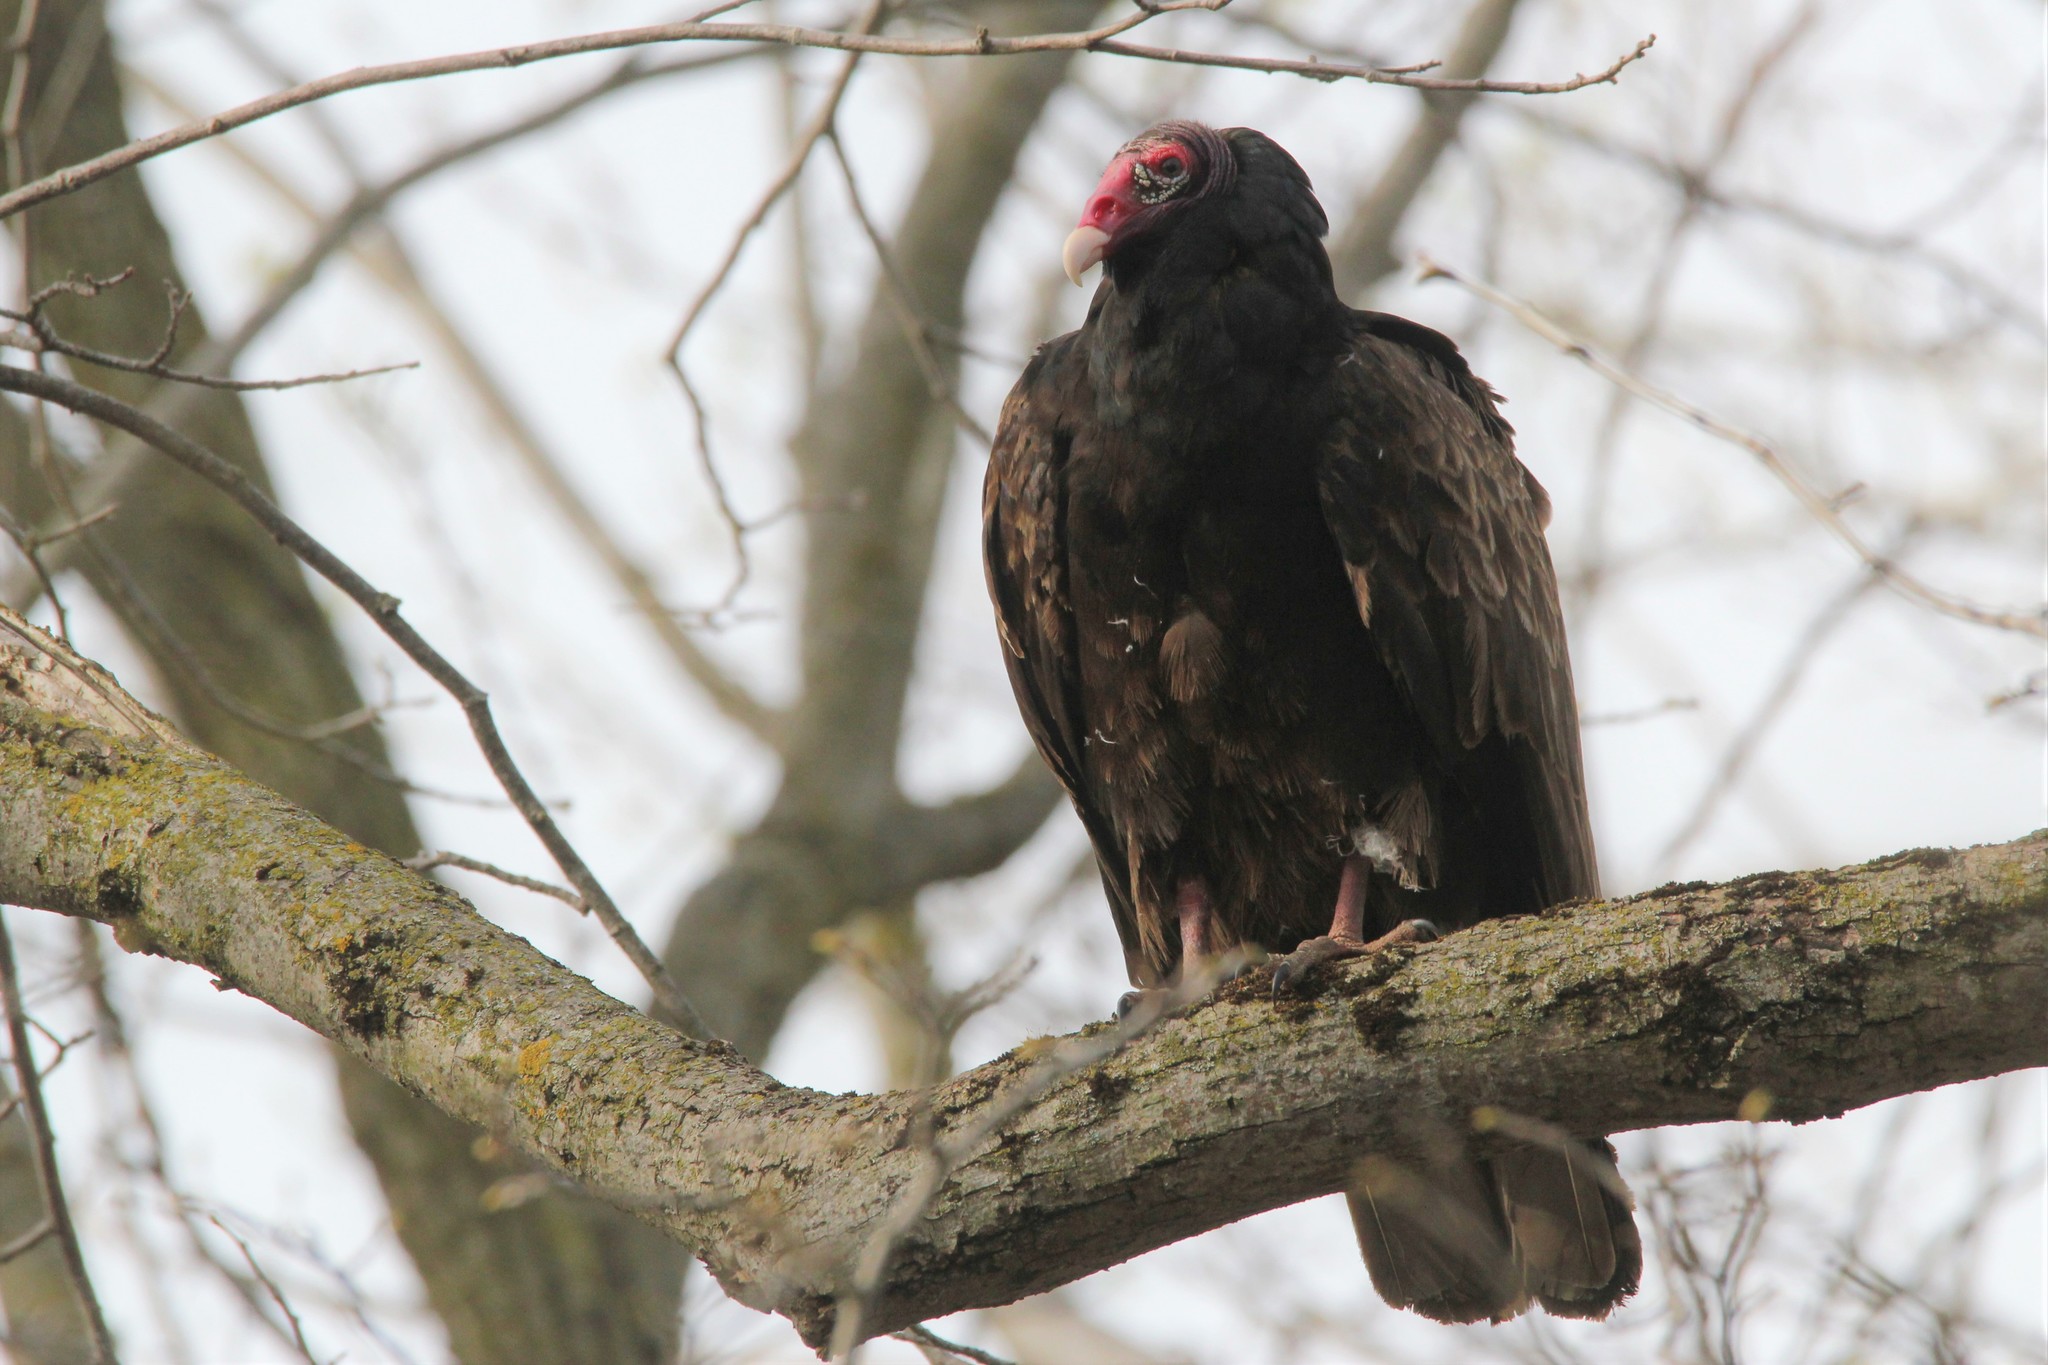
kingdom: Animalia
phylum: Chordata
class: Aves
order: Accipitriformes
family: Cathartidae
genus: Cathartes
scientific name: Cathartes aura
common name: Turkey vulture
